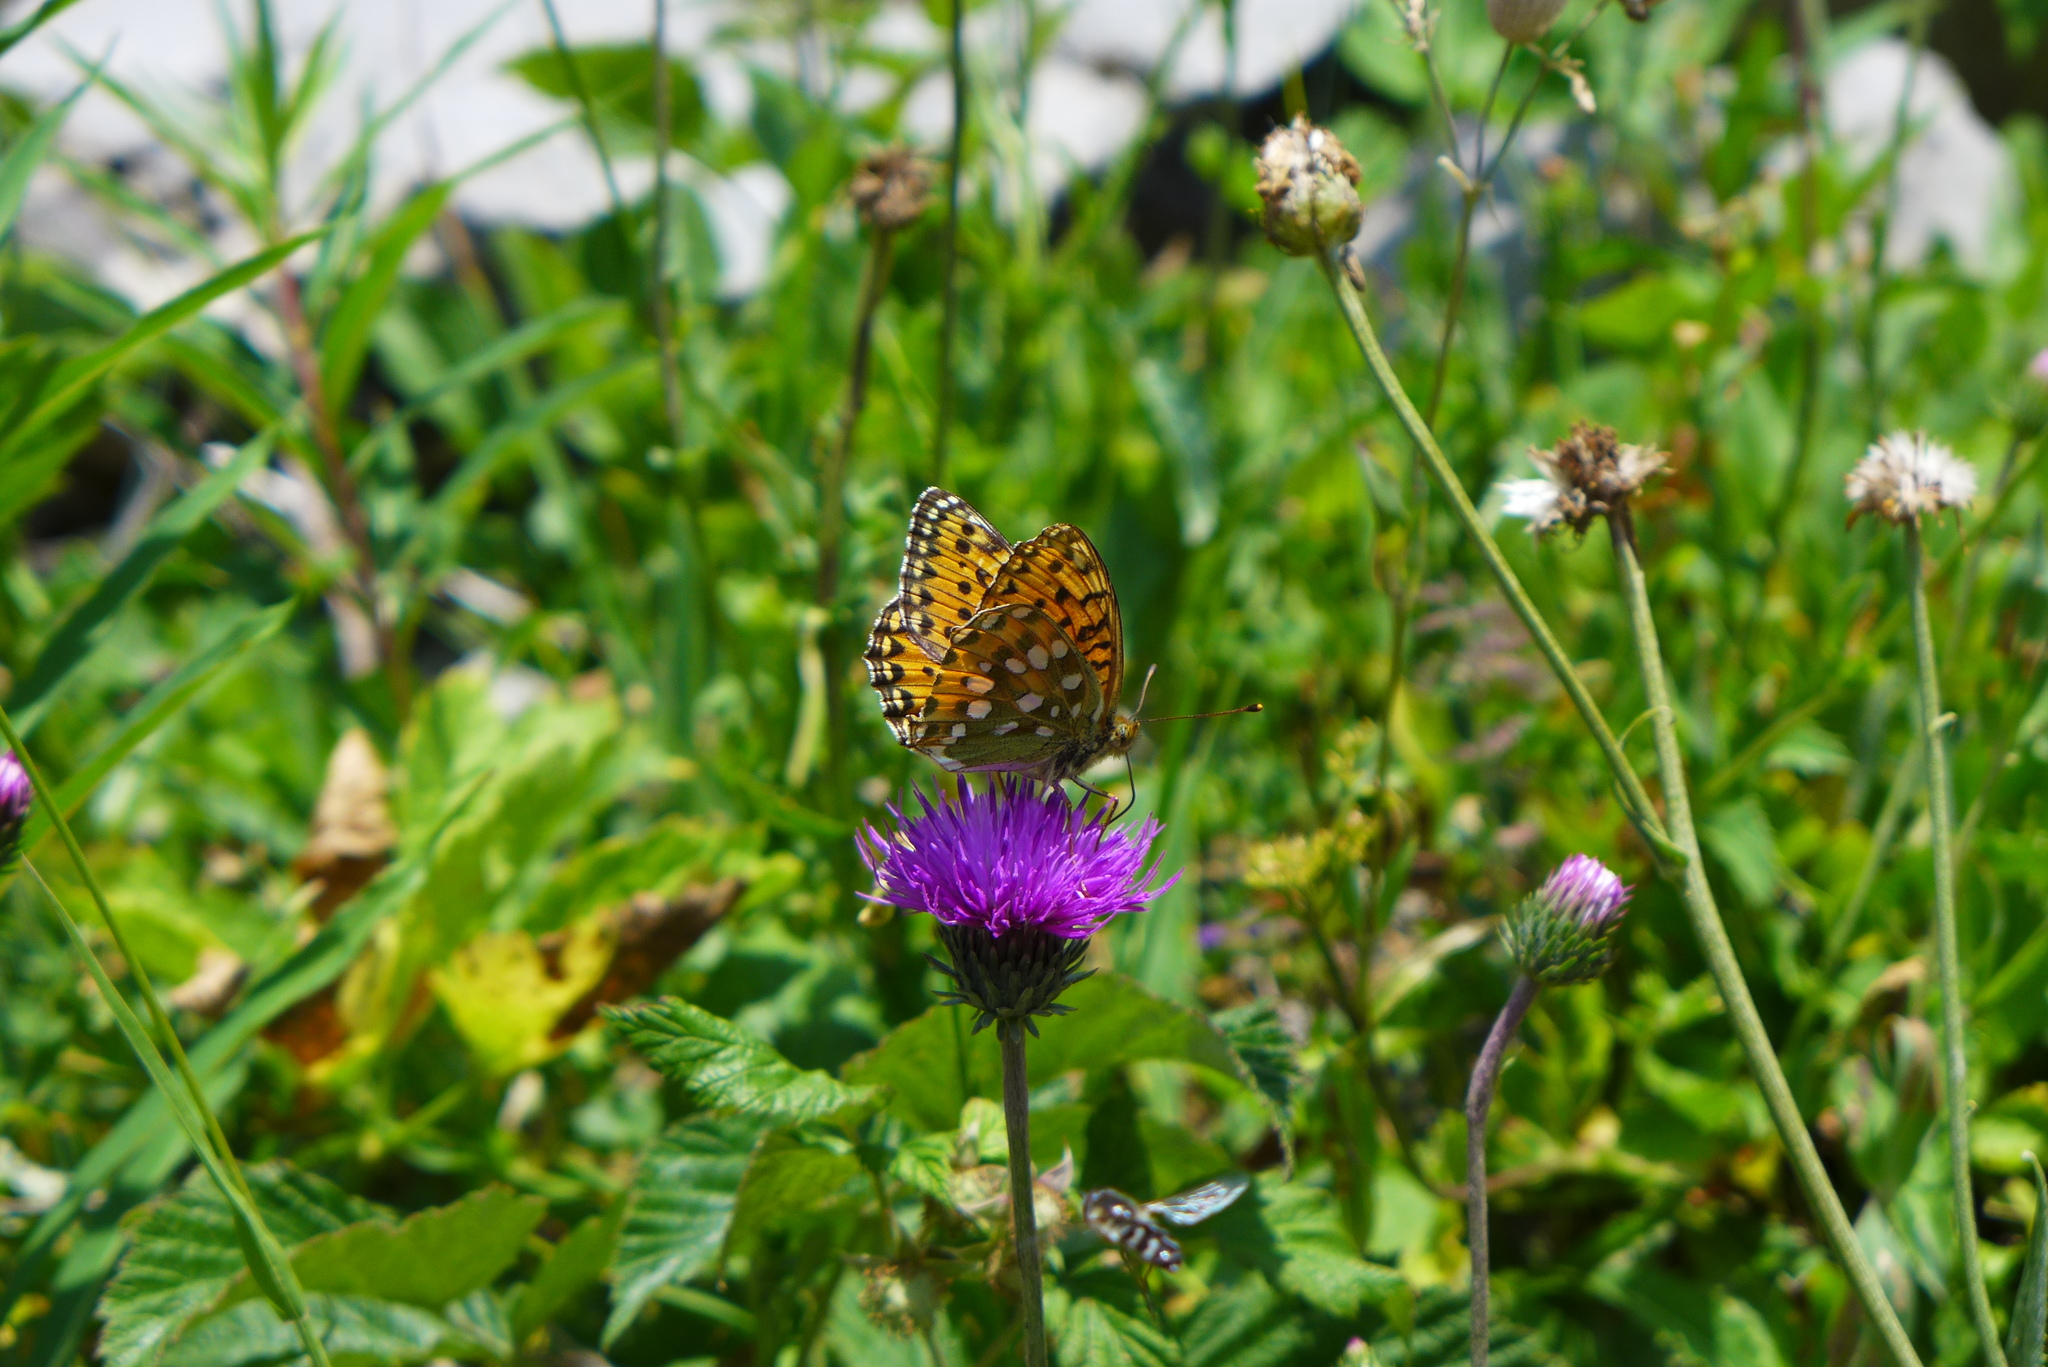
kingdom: Animalia
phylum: Arthropoda
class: Insecta
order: Lepidoptera
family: Nymphalidae
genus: Speyeria
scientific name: Speyeria aglaja
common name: Dark green fritillary
